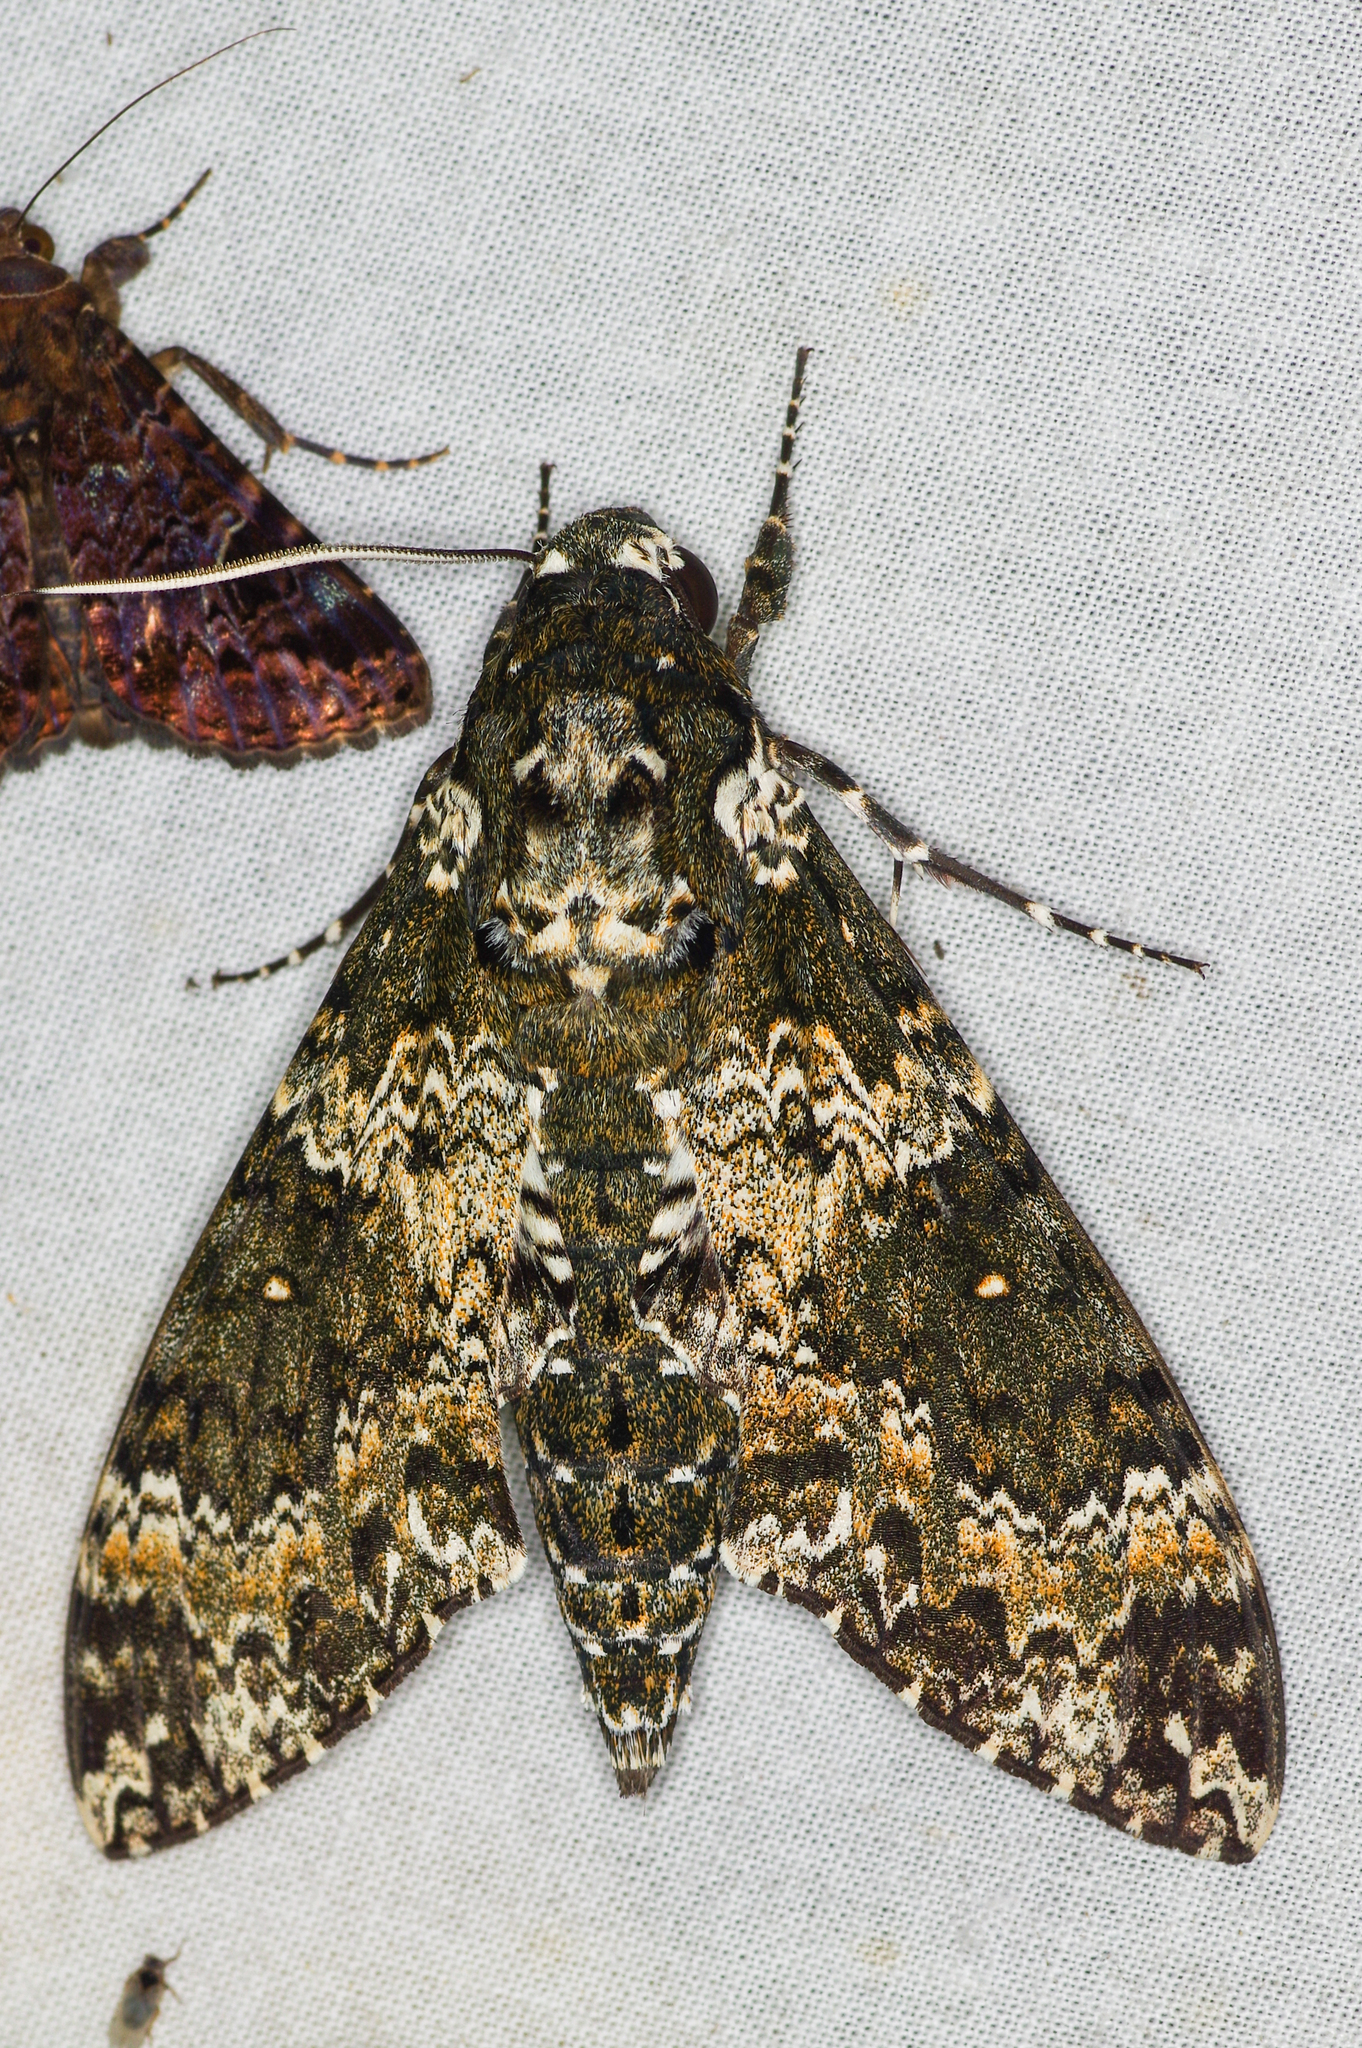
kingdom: Animalia
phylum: Arthropoda
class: Insecta
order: Lepidoptera
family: Sphingidae
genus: Manduca
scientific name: Manduca rustica
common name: Rustic sphinx
